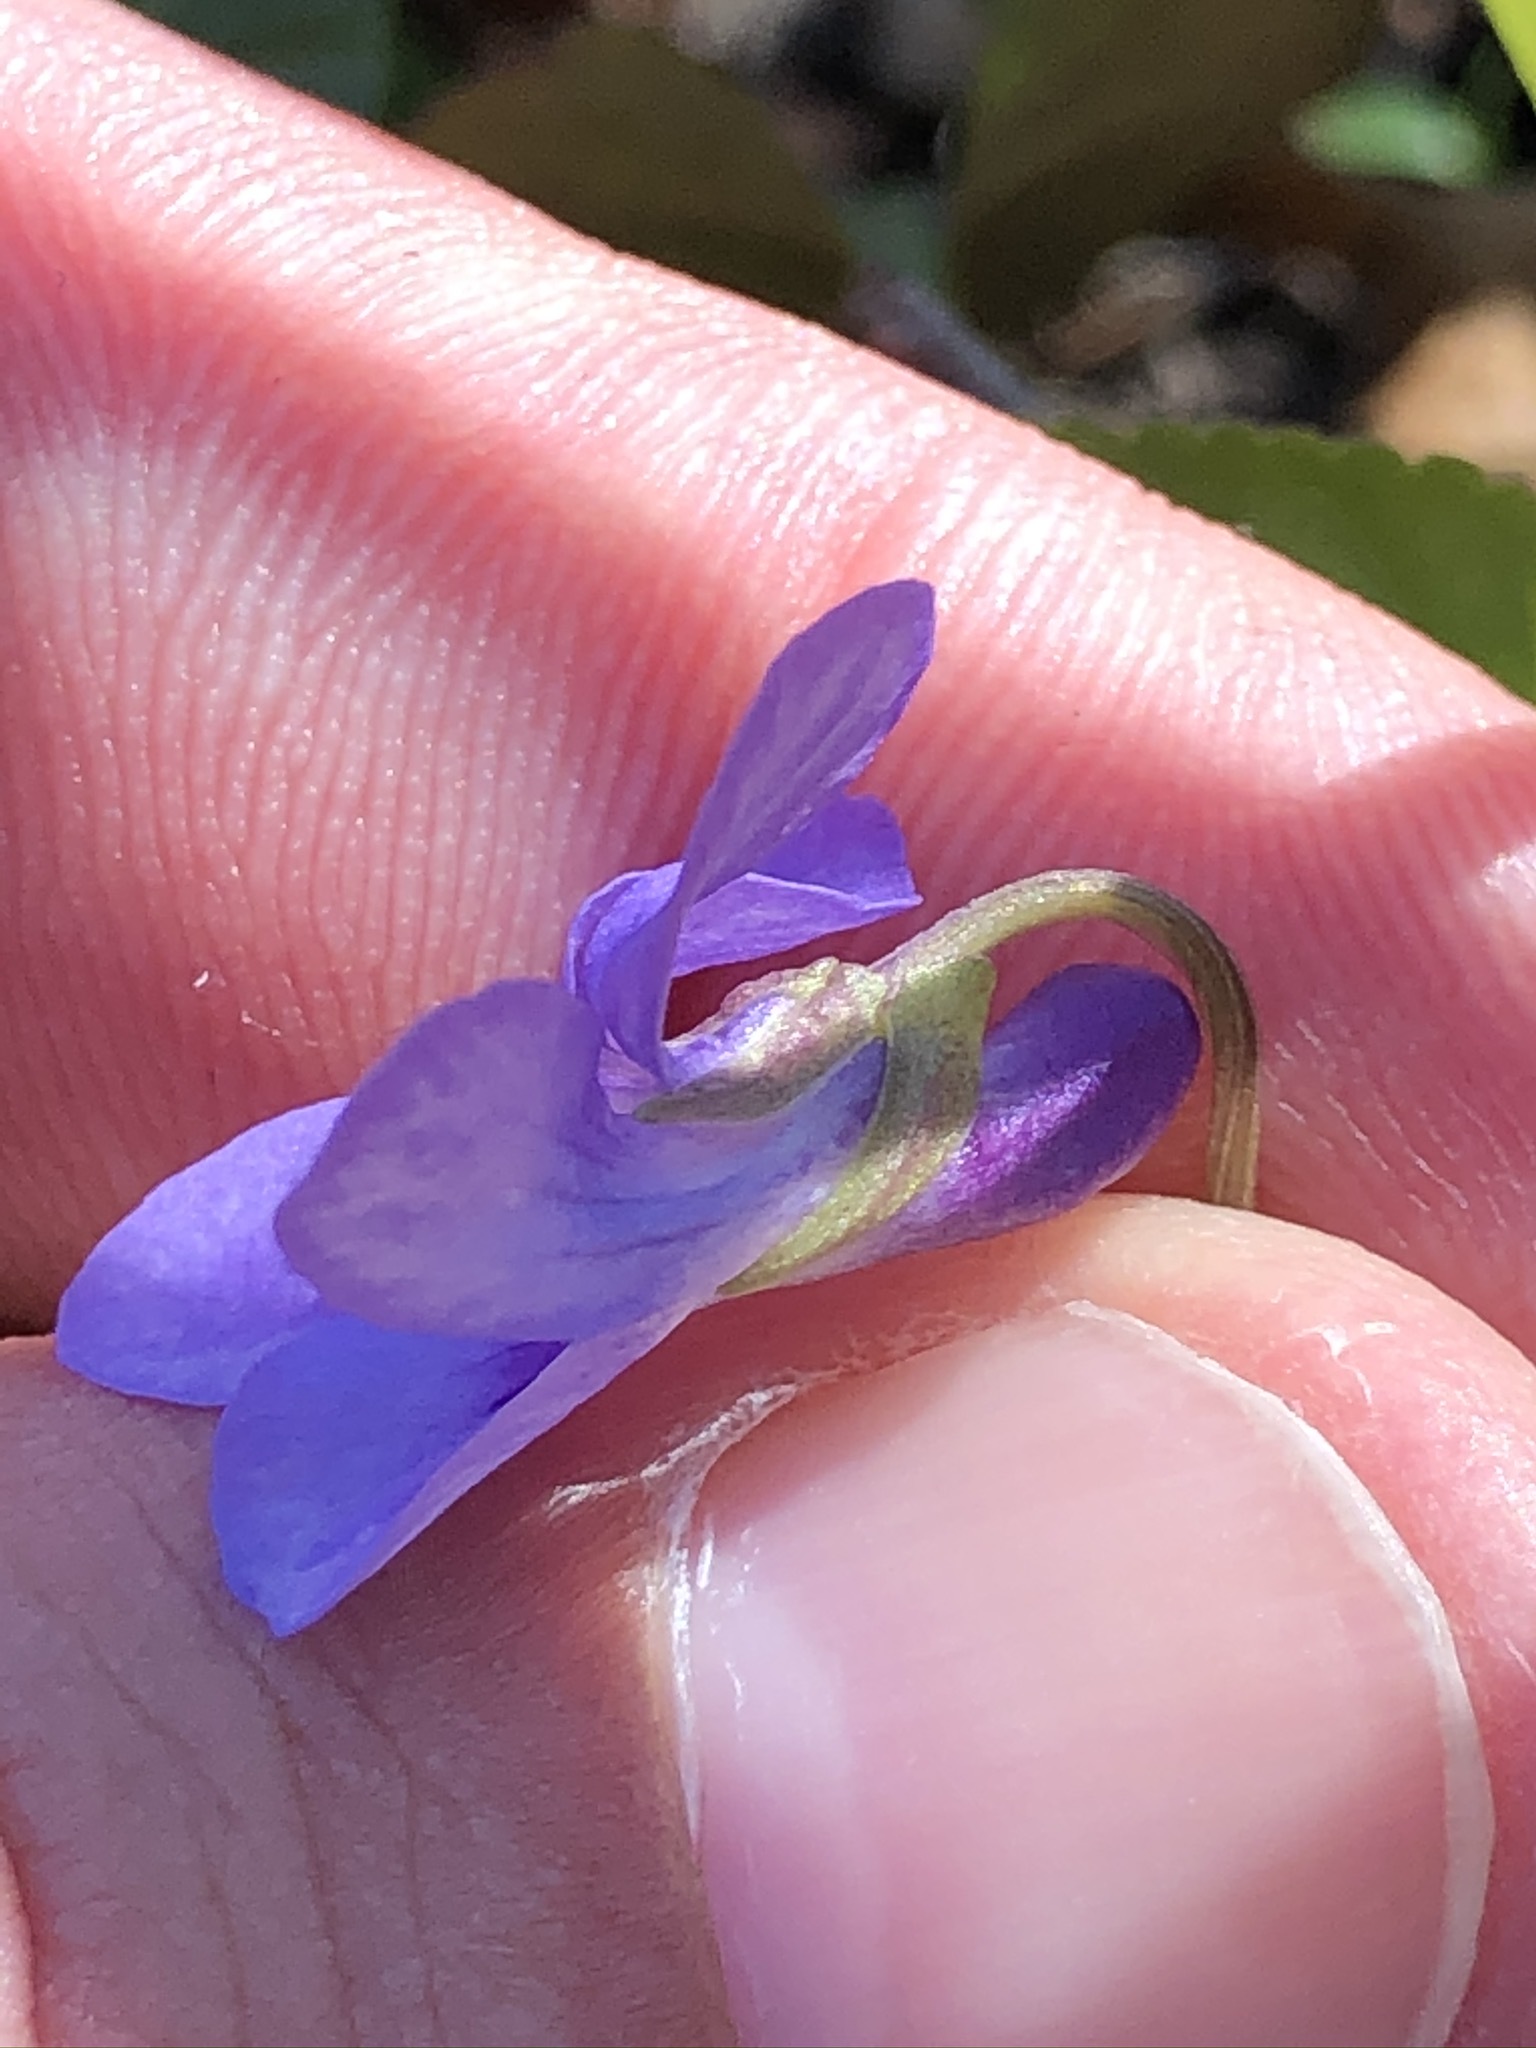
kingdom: Plantae
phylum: Tracheophyta
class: Magnoliopsida
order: Malpighiales
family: Violaceae
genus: Viola
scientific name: Viola reichenbachiana
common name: Early dog-violet
